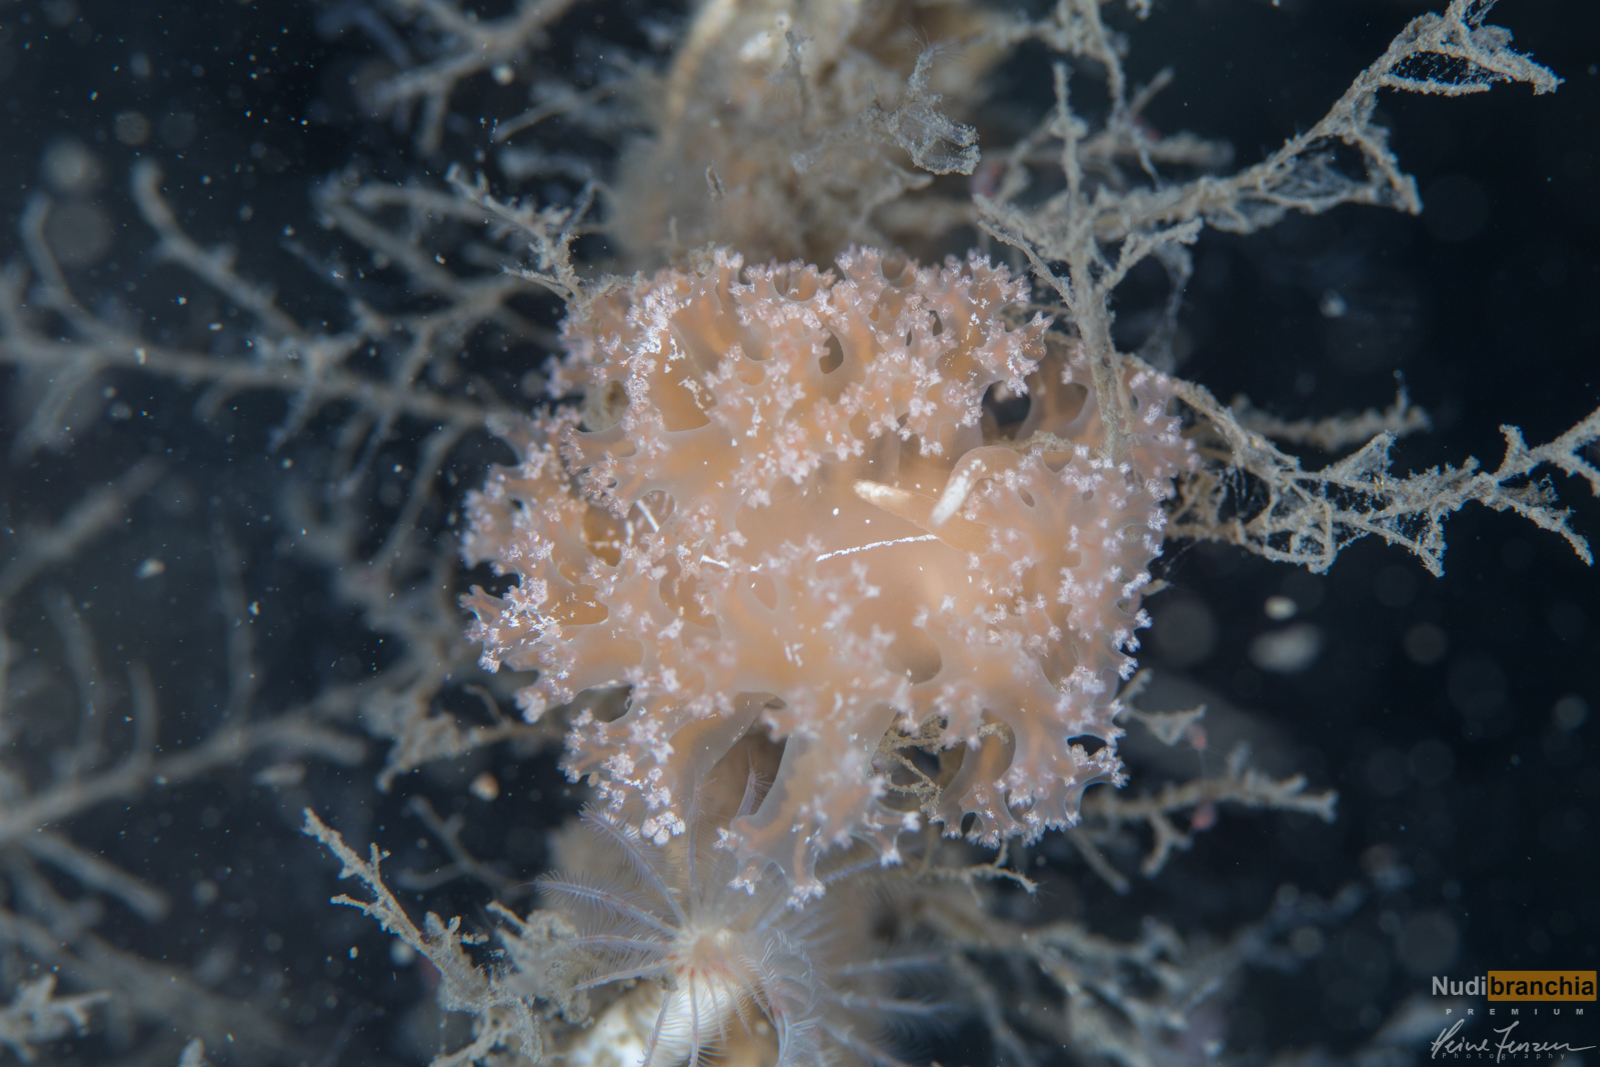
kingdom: Animalia
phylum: Mollusca
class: Gastropoda
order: Nudibranchia
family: Heroidae
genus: Hero
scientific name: Hero formosa
